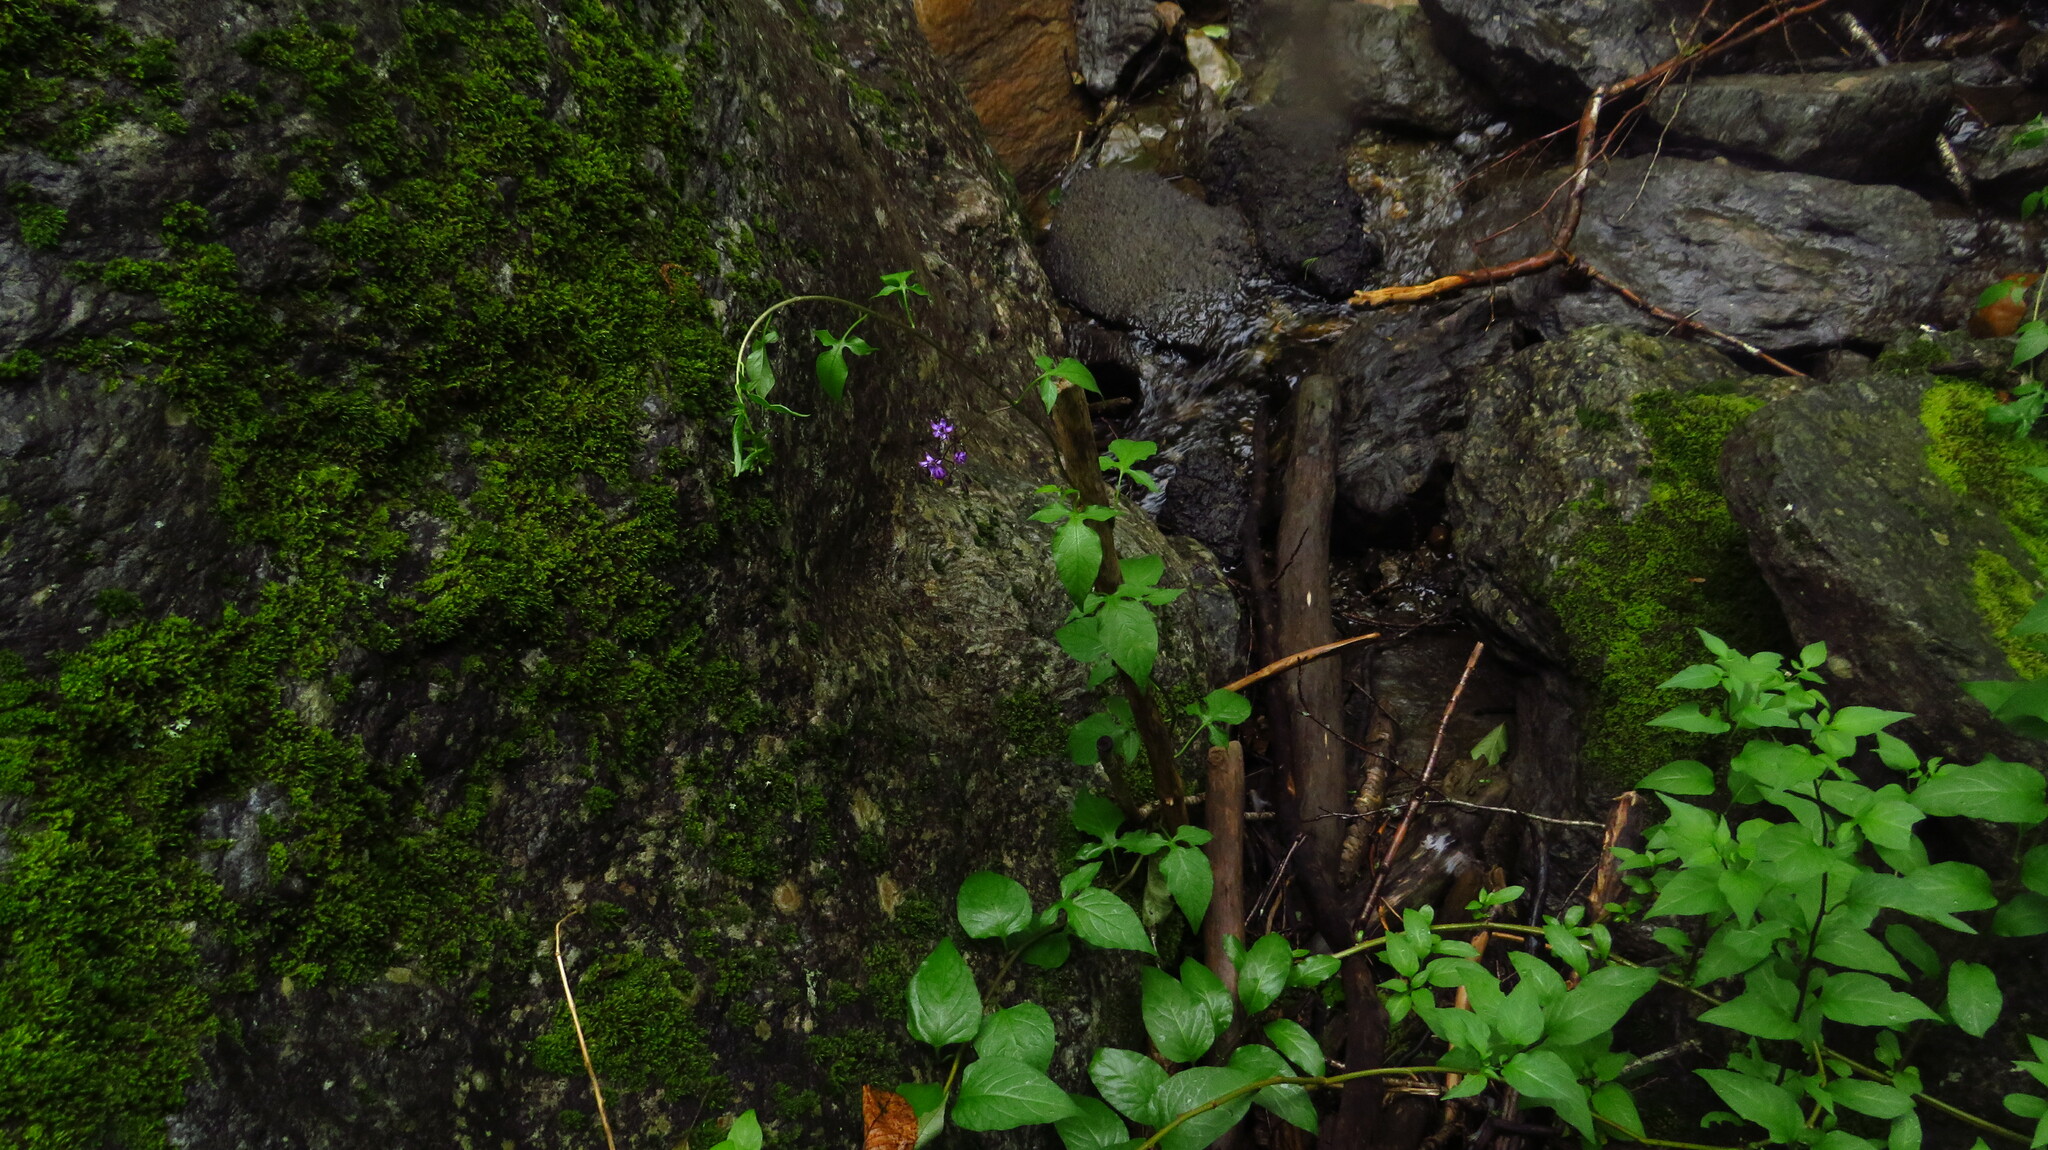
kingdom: Plantae
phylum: Tracheophyta
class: Magnoliopsida
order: Solanales
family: Solanaceae
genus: Solanum
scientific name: Solanum dulcamara
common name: Climbing nightshade
